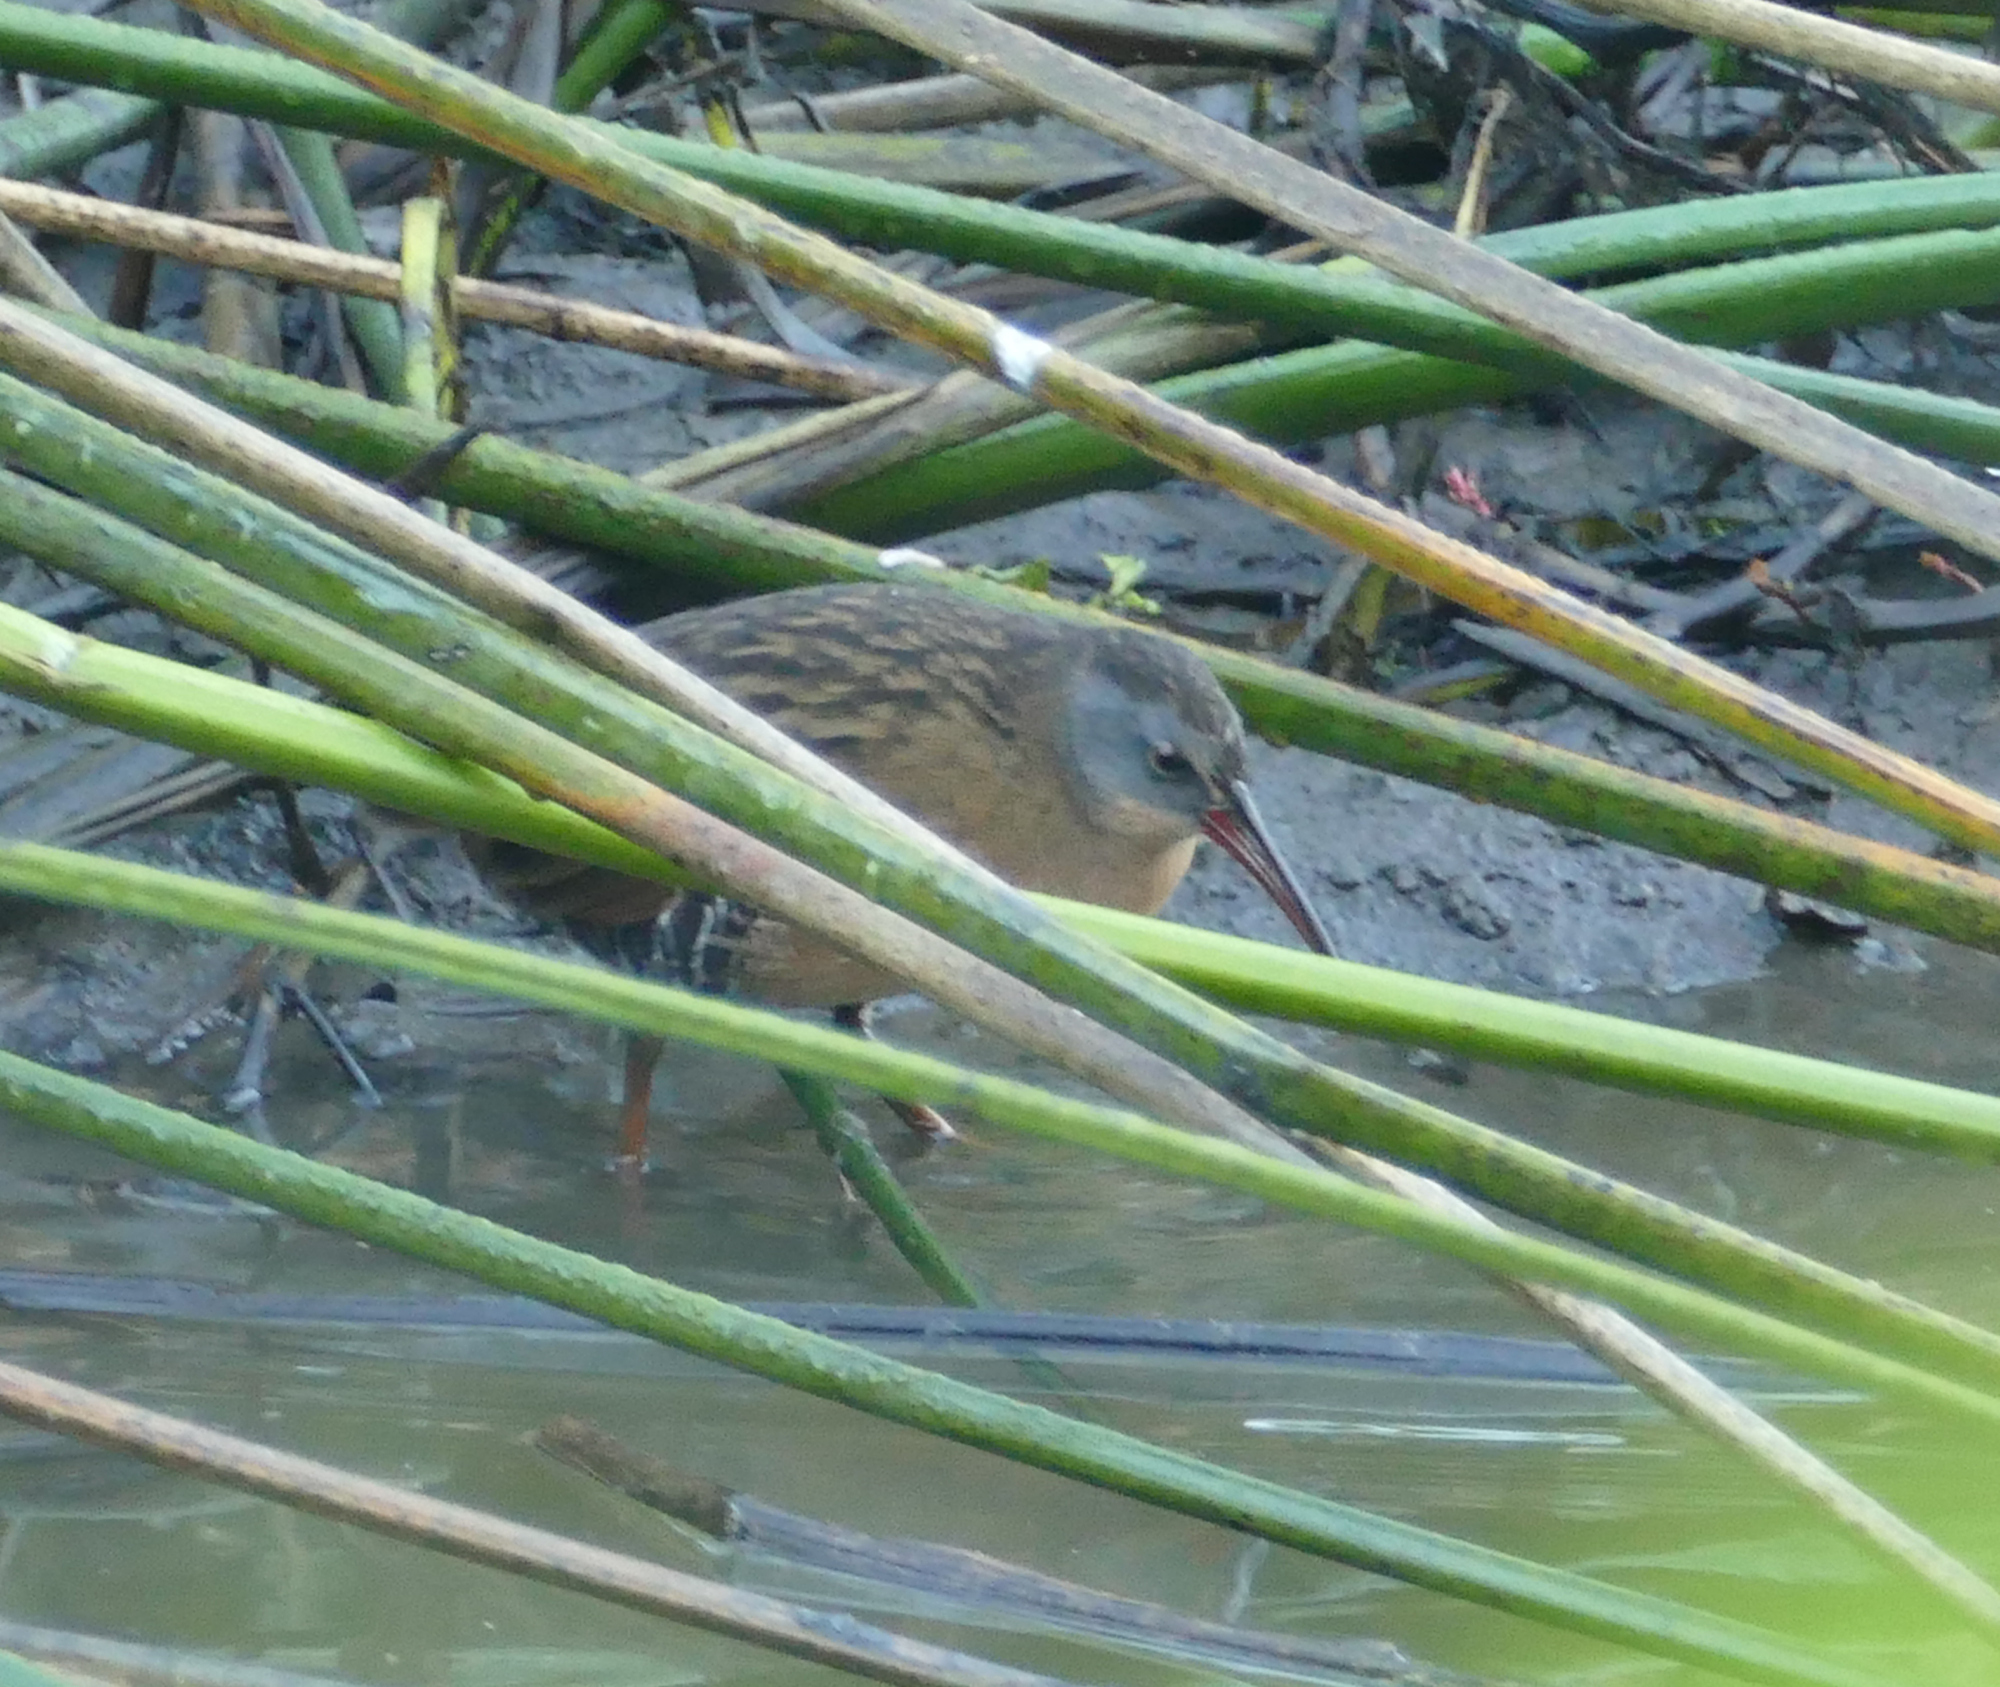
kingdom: Animalia
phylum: Chordata
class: Aves
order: Gruiformes
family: Rallidae
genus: Rallus
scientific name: Rallus limicola
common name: Virginia rail
